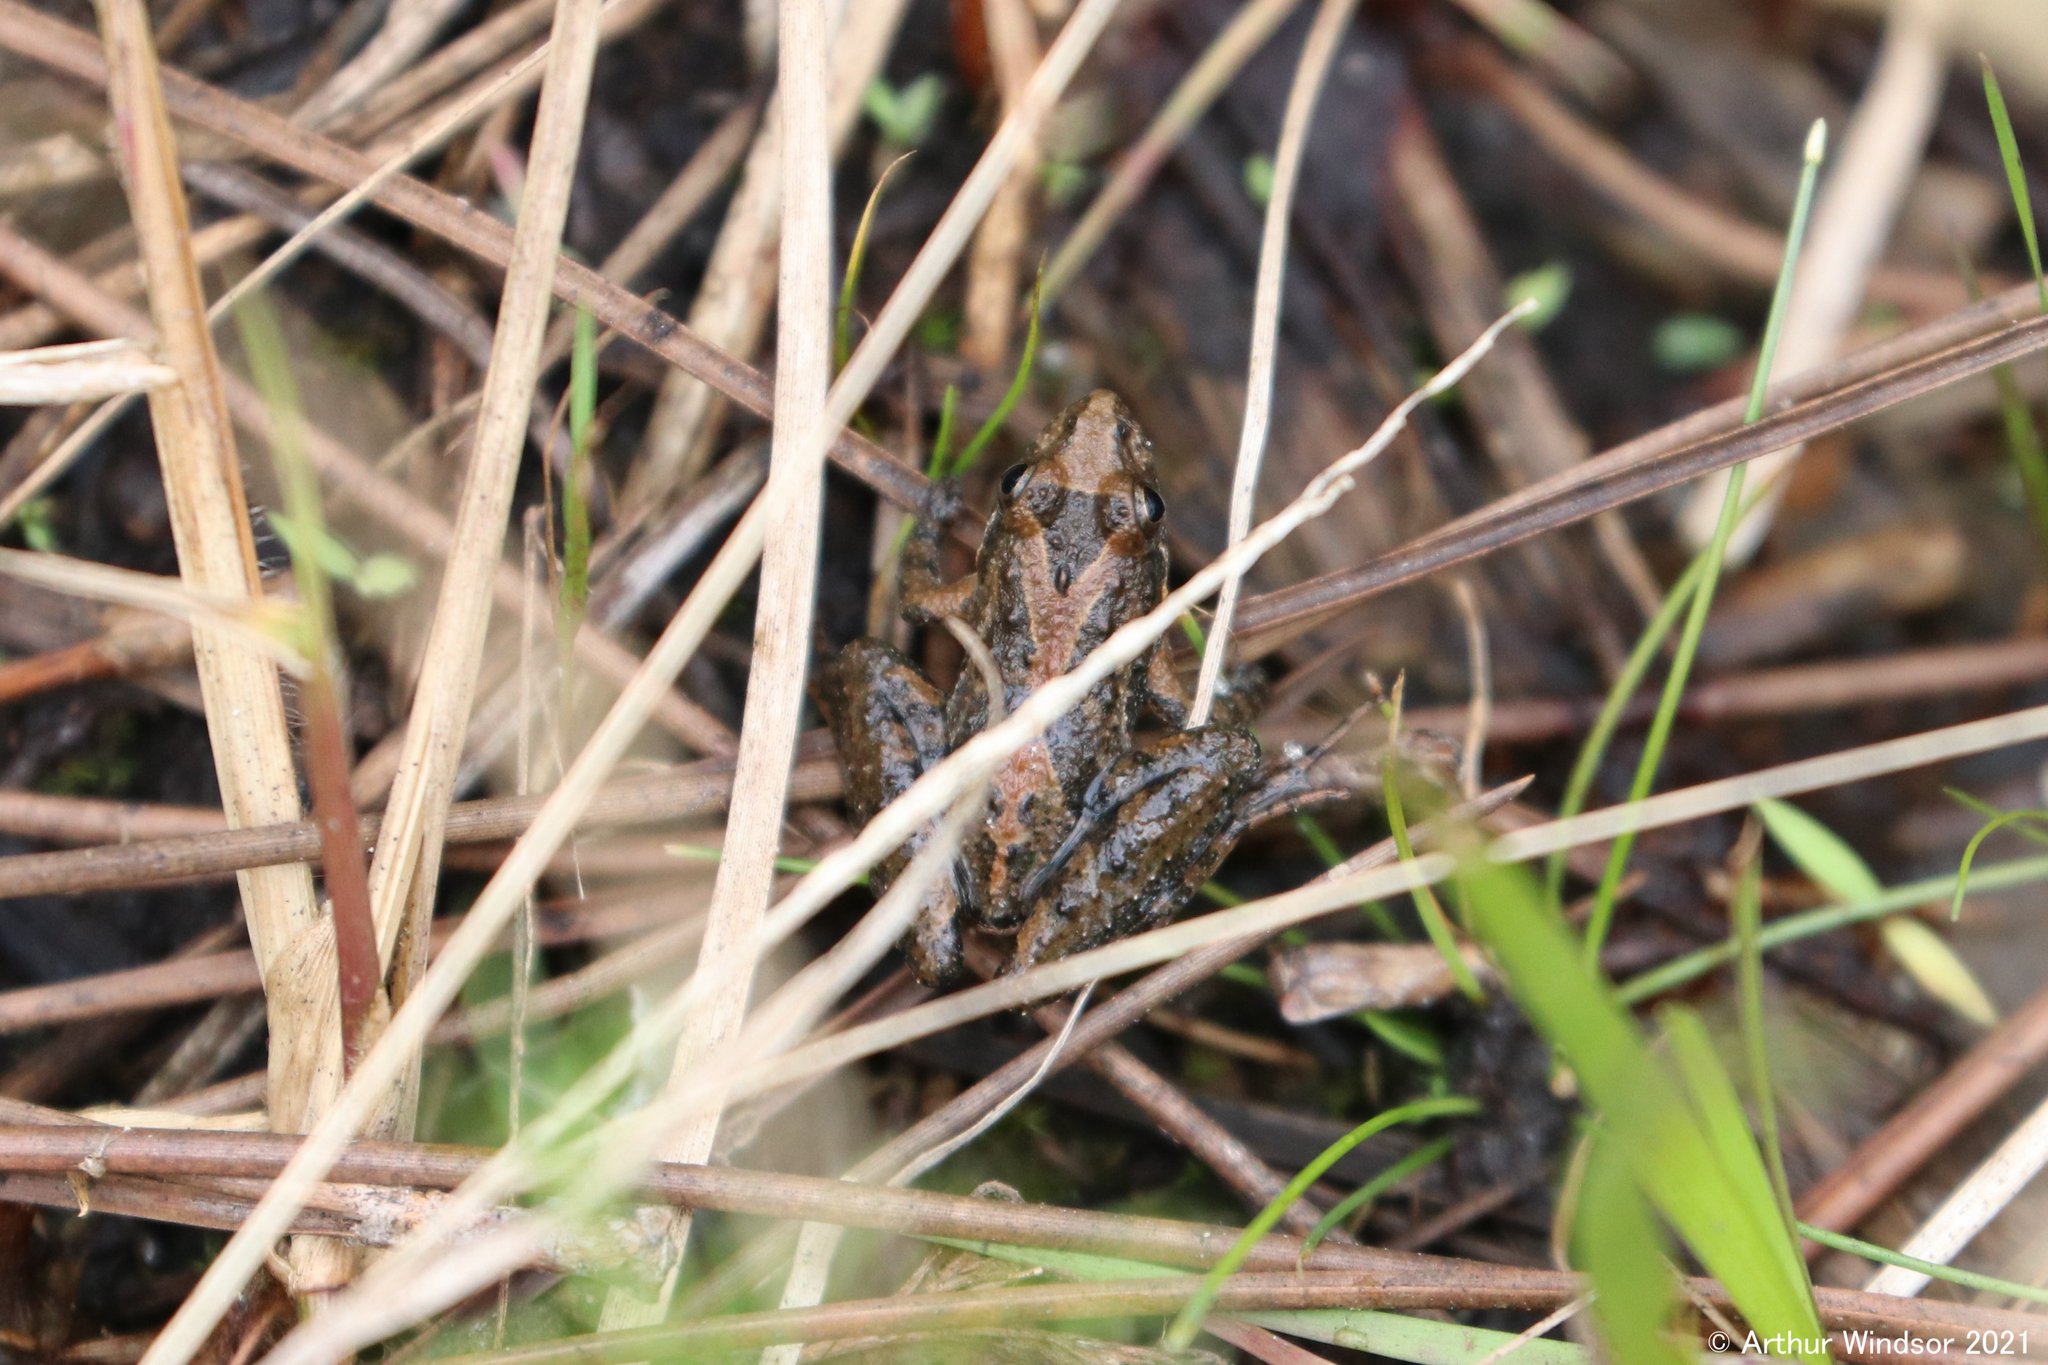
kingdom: Animalia
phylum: Chordata
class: Amphibia
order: Anura
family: Hylidae
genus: Acris
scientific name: Acris gryllus
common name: Southern cricket frog
